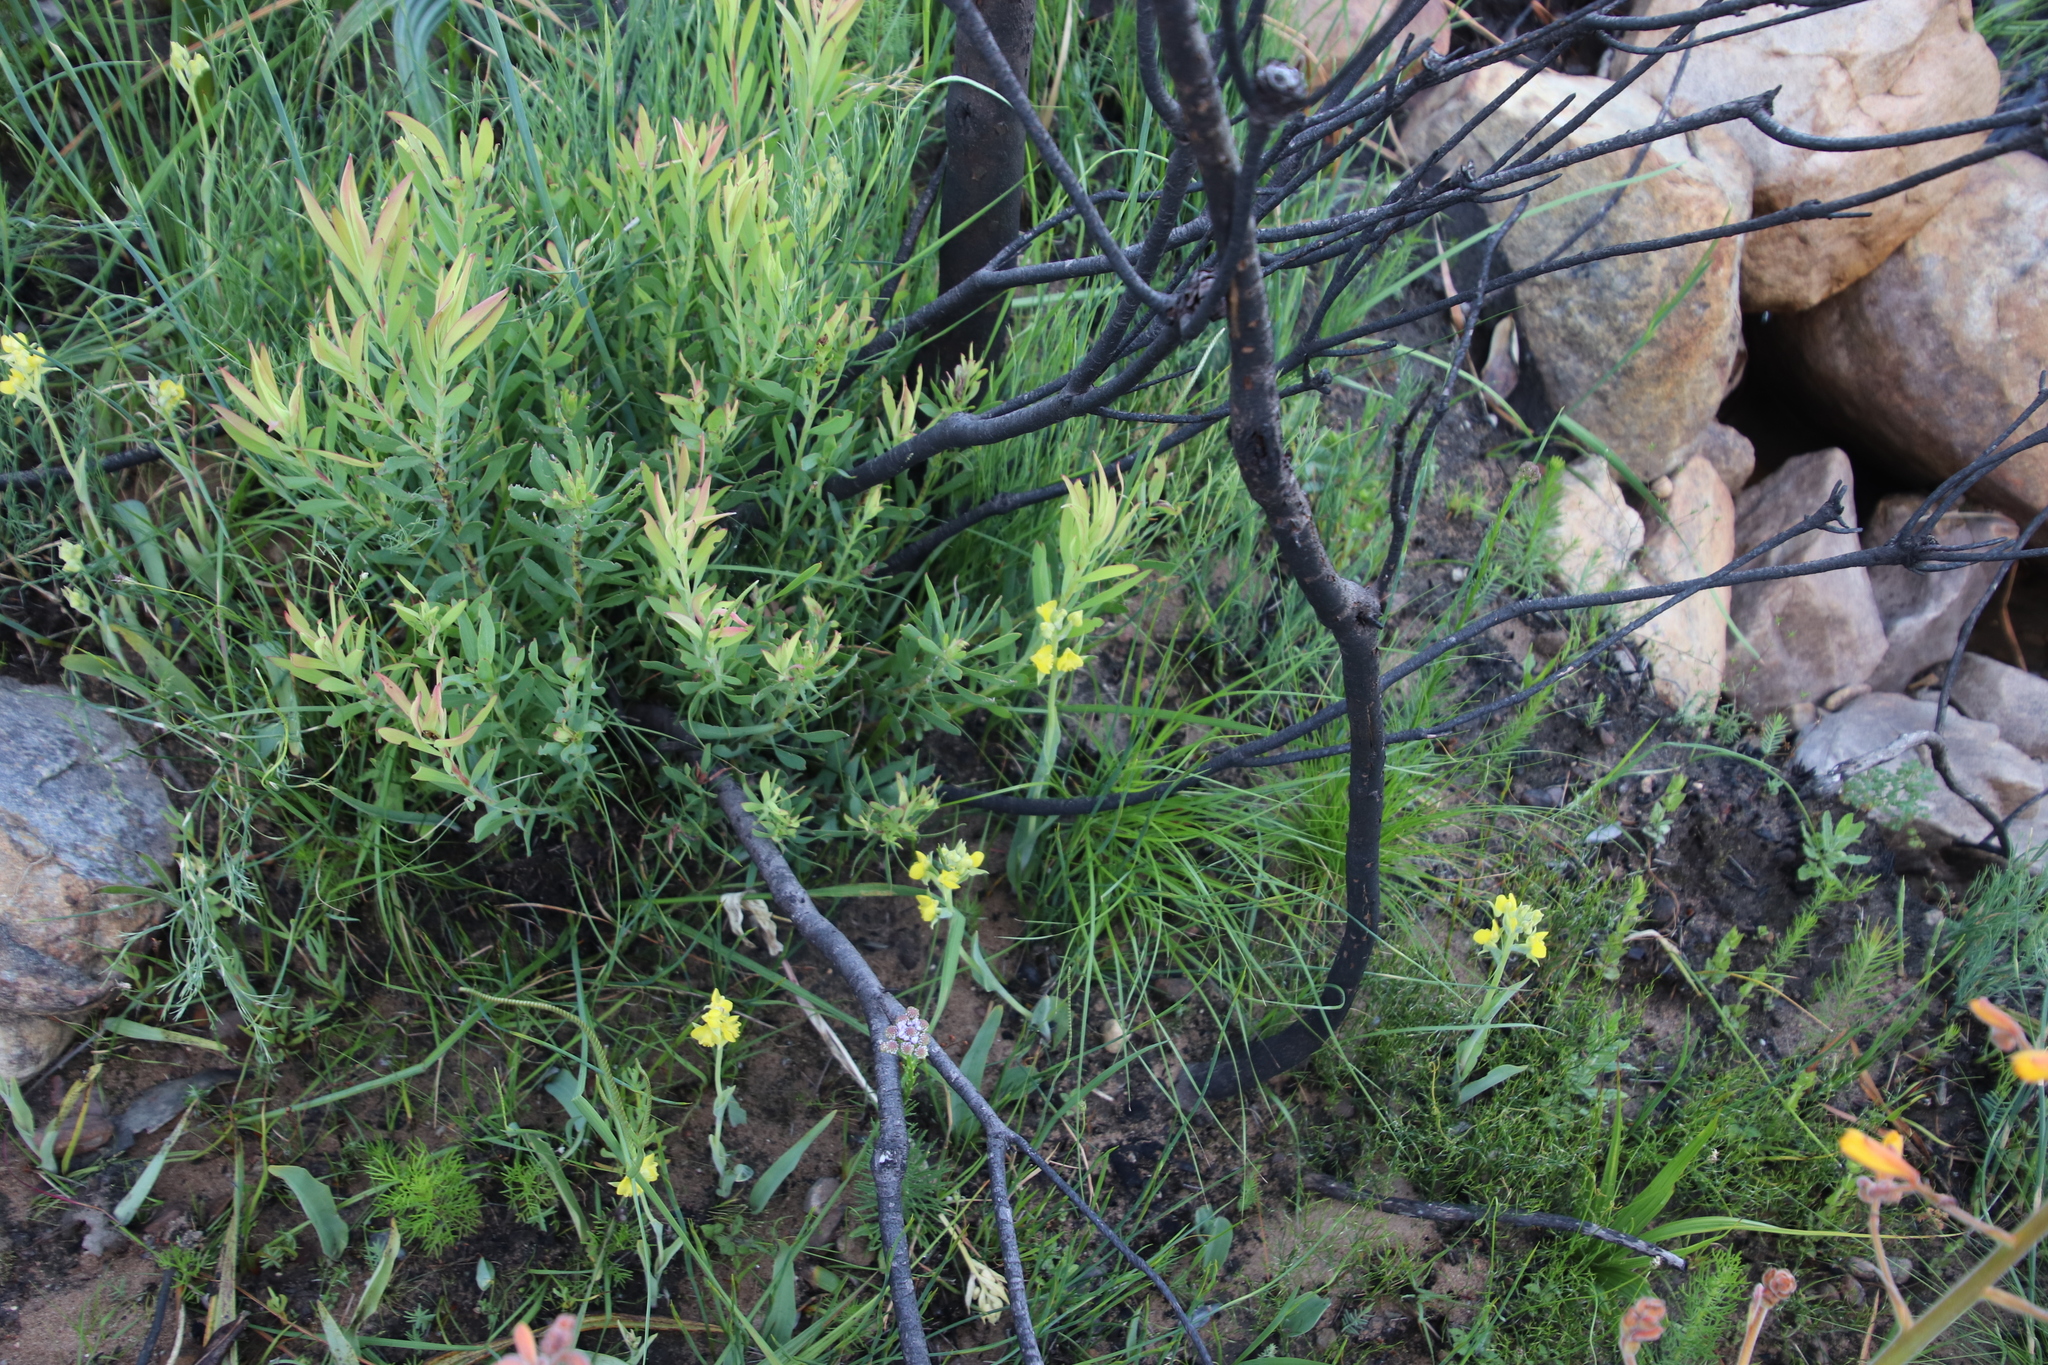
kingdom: Plantae
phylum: Tracheophyta
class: Liliopsida
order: Asparagales
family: Orchidaceae
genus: Pterygodium
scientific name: Pterygodium catholicum
